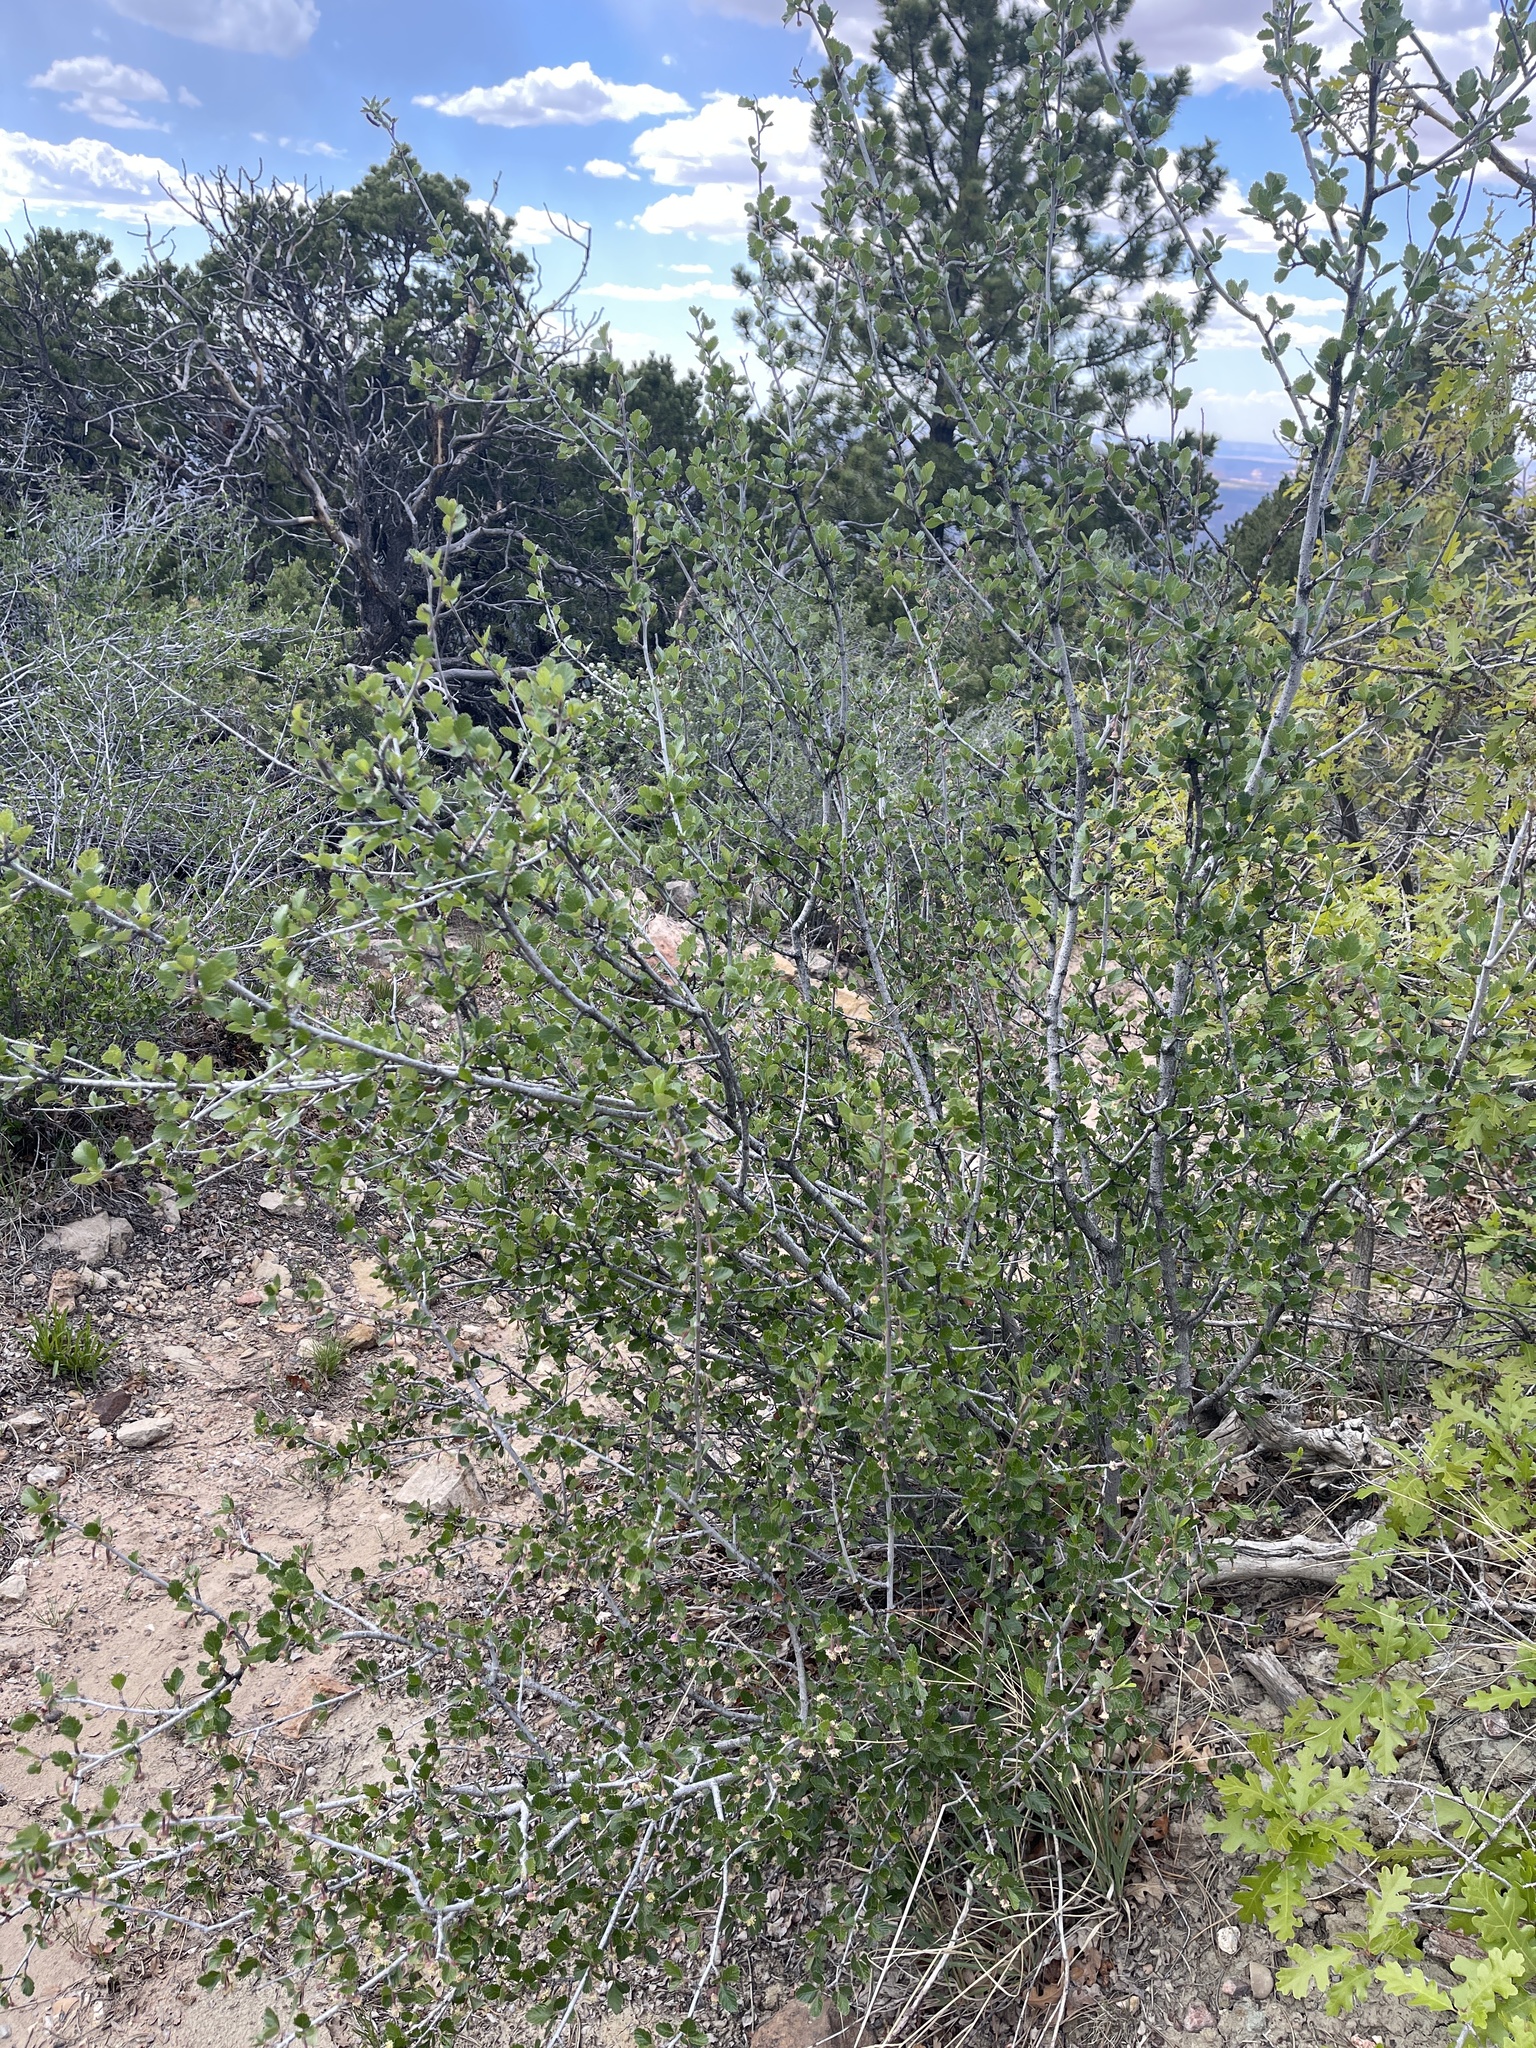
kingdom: Plantae
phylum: Tracheophyta
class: Magnoliopsida
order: Rosales
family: Rosaceae
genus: Cercocarpus
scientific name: Cercocarpus montanus
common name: Alder-leaf cercocarpus
